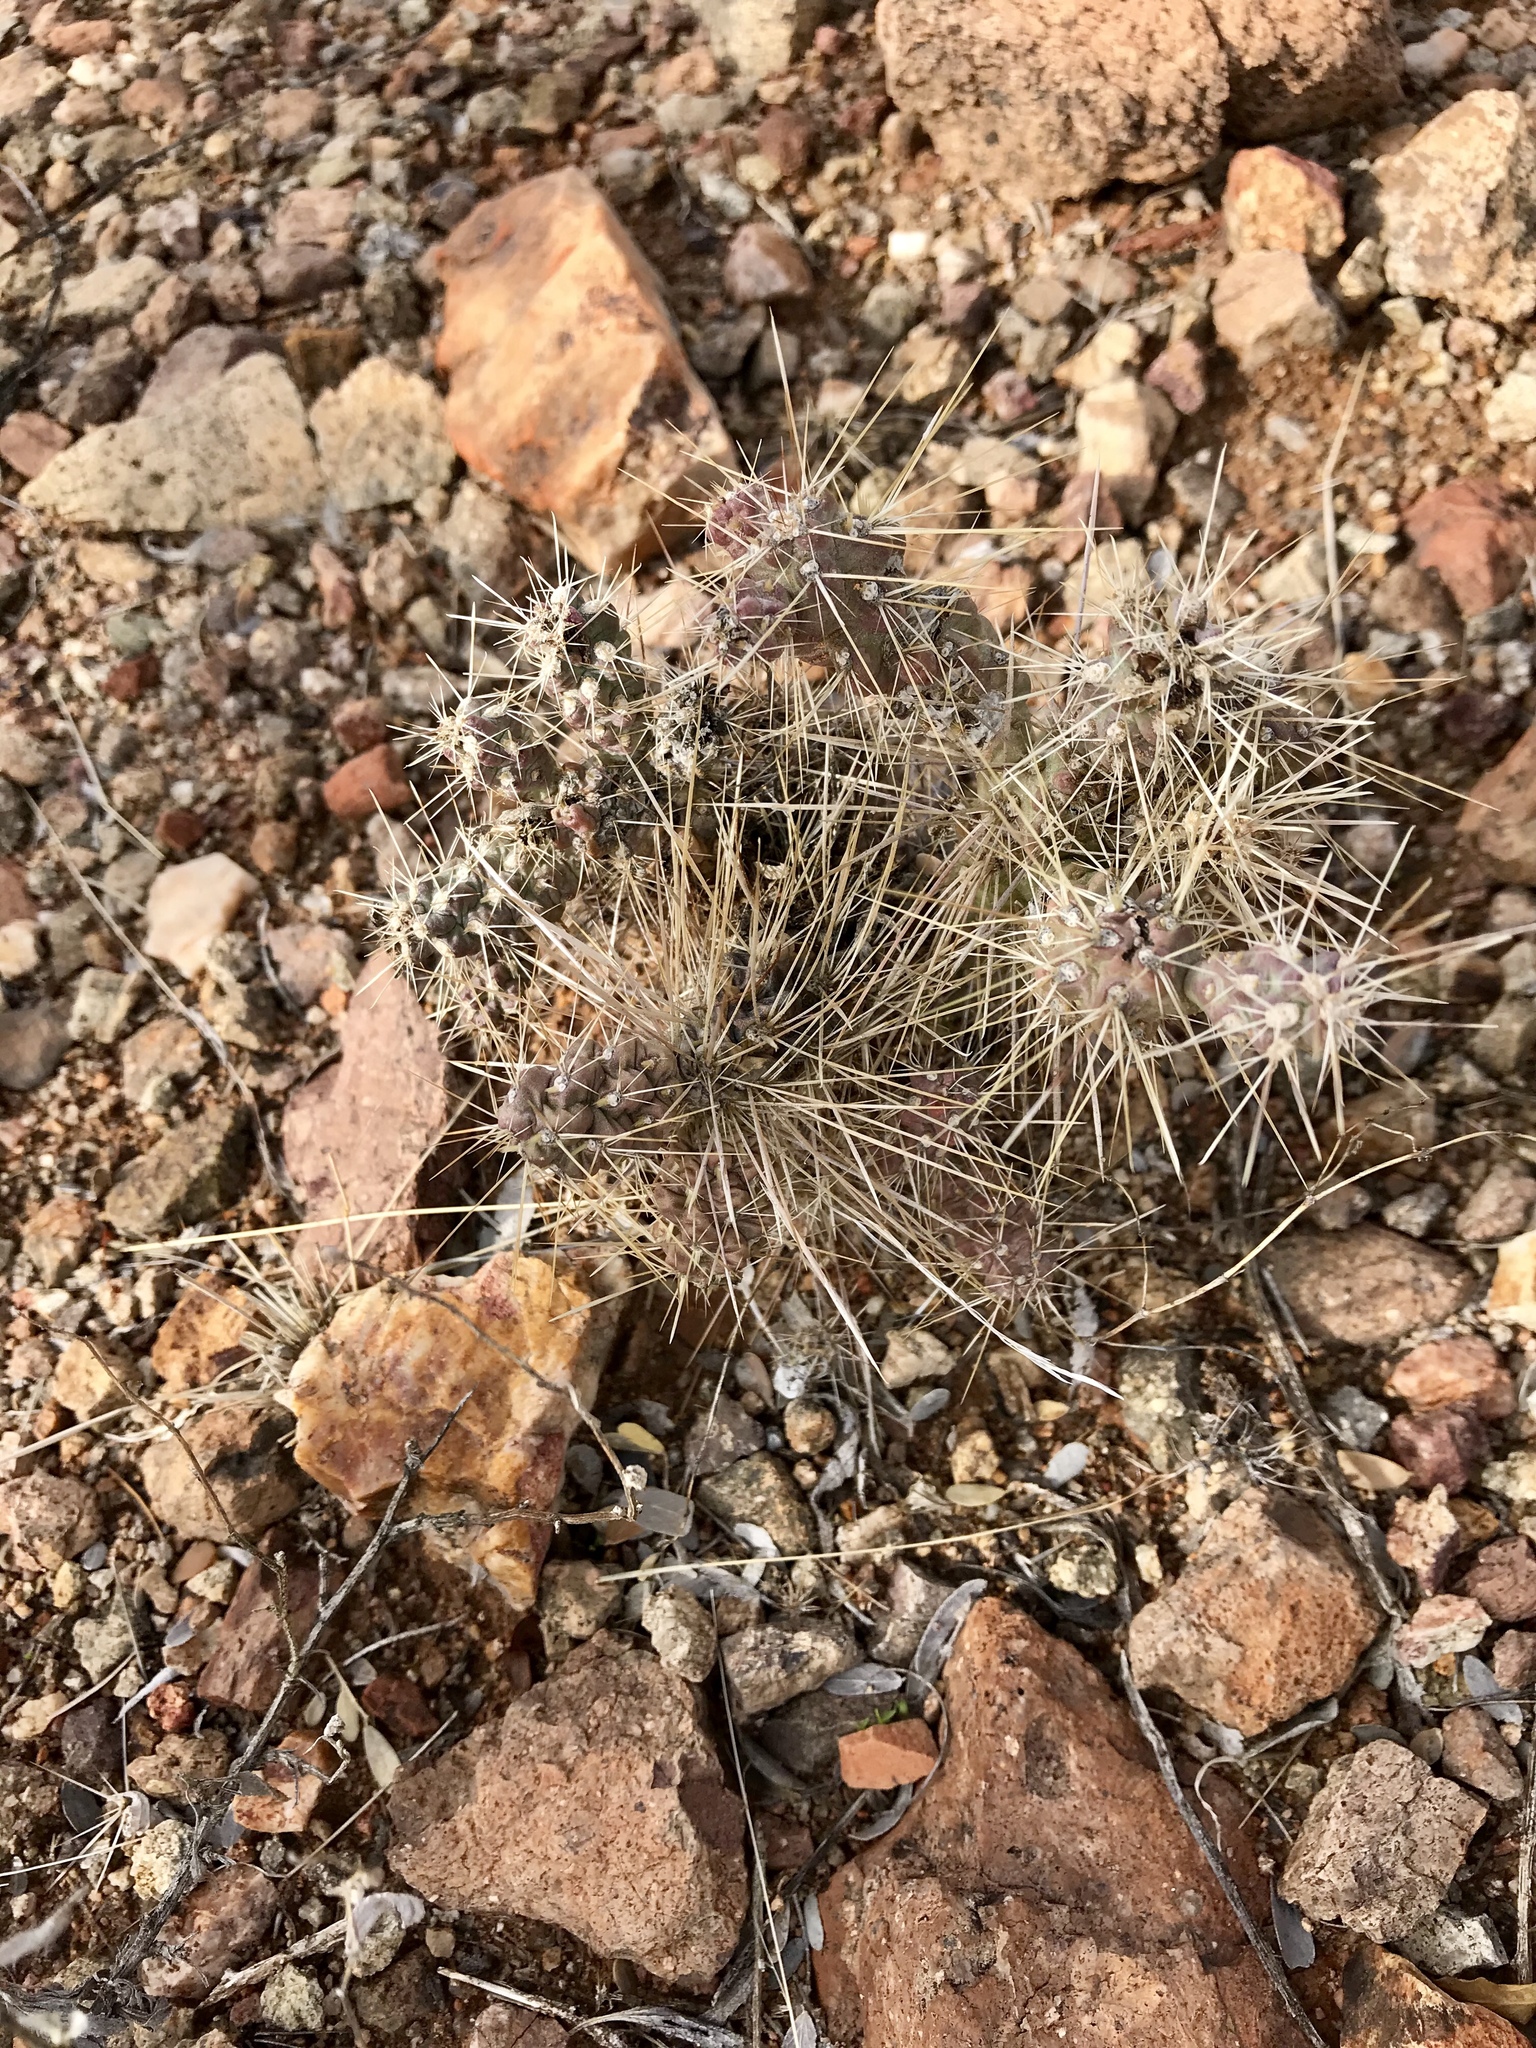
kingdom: Plantae
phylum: Tracheophyta
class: Magnoliopsida
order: Caryophyllales
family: Cactaceae
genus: Cylindropuntia
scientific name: Cylindropuntia fulgida
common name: Jumping cholla
